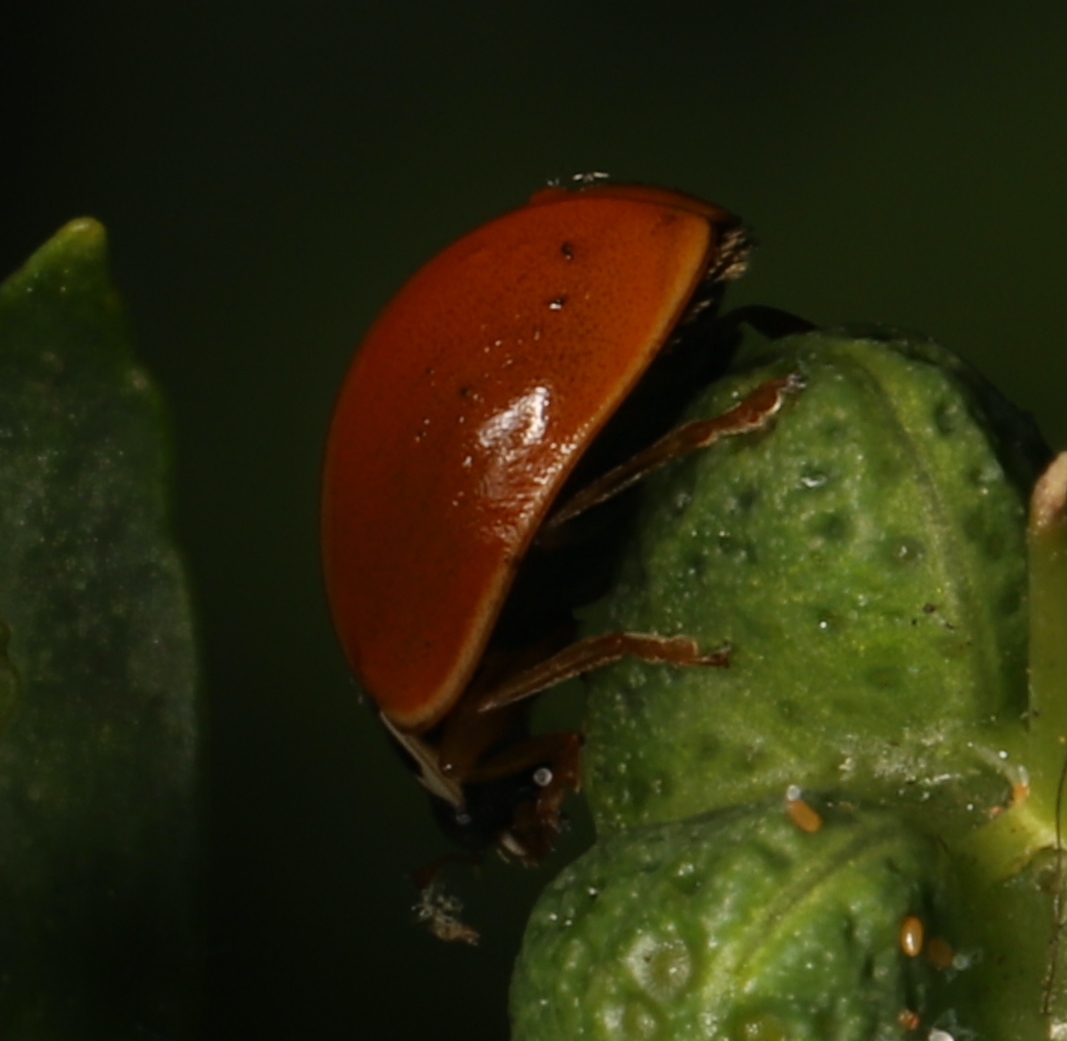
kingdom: Animalia
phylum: Arthropoda
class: Insecta
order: Coleoptera
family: Coccinellidae
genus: Cycloneda
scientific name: Cycloneda munda
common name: Polished lady beetle
